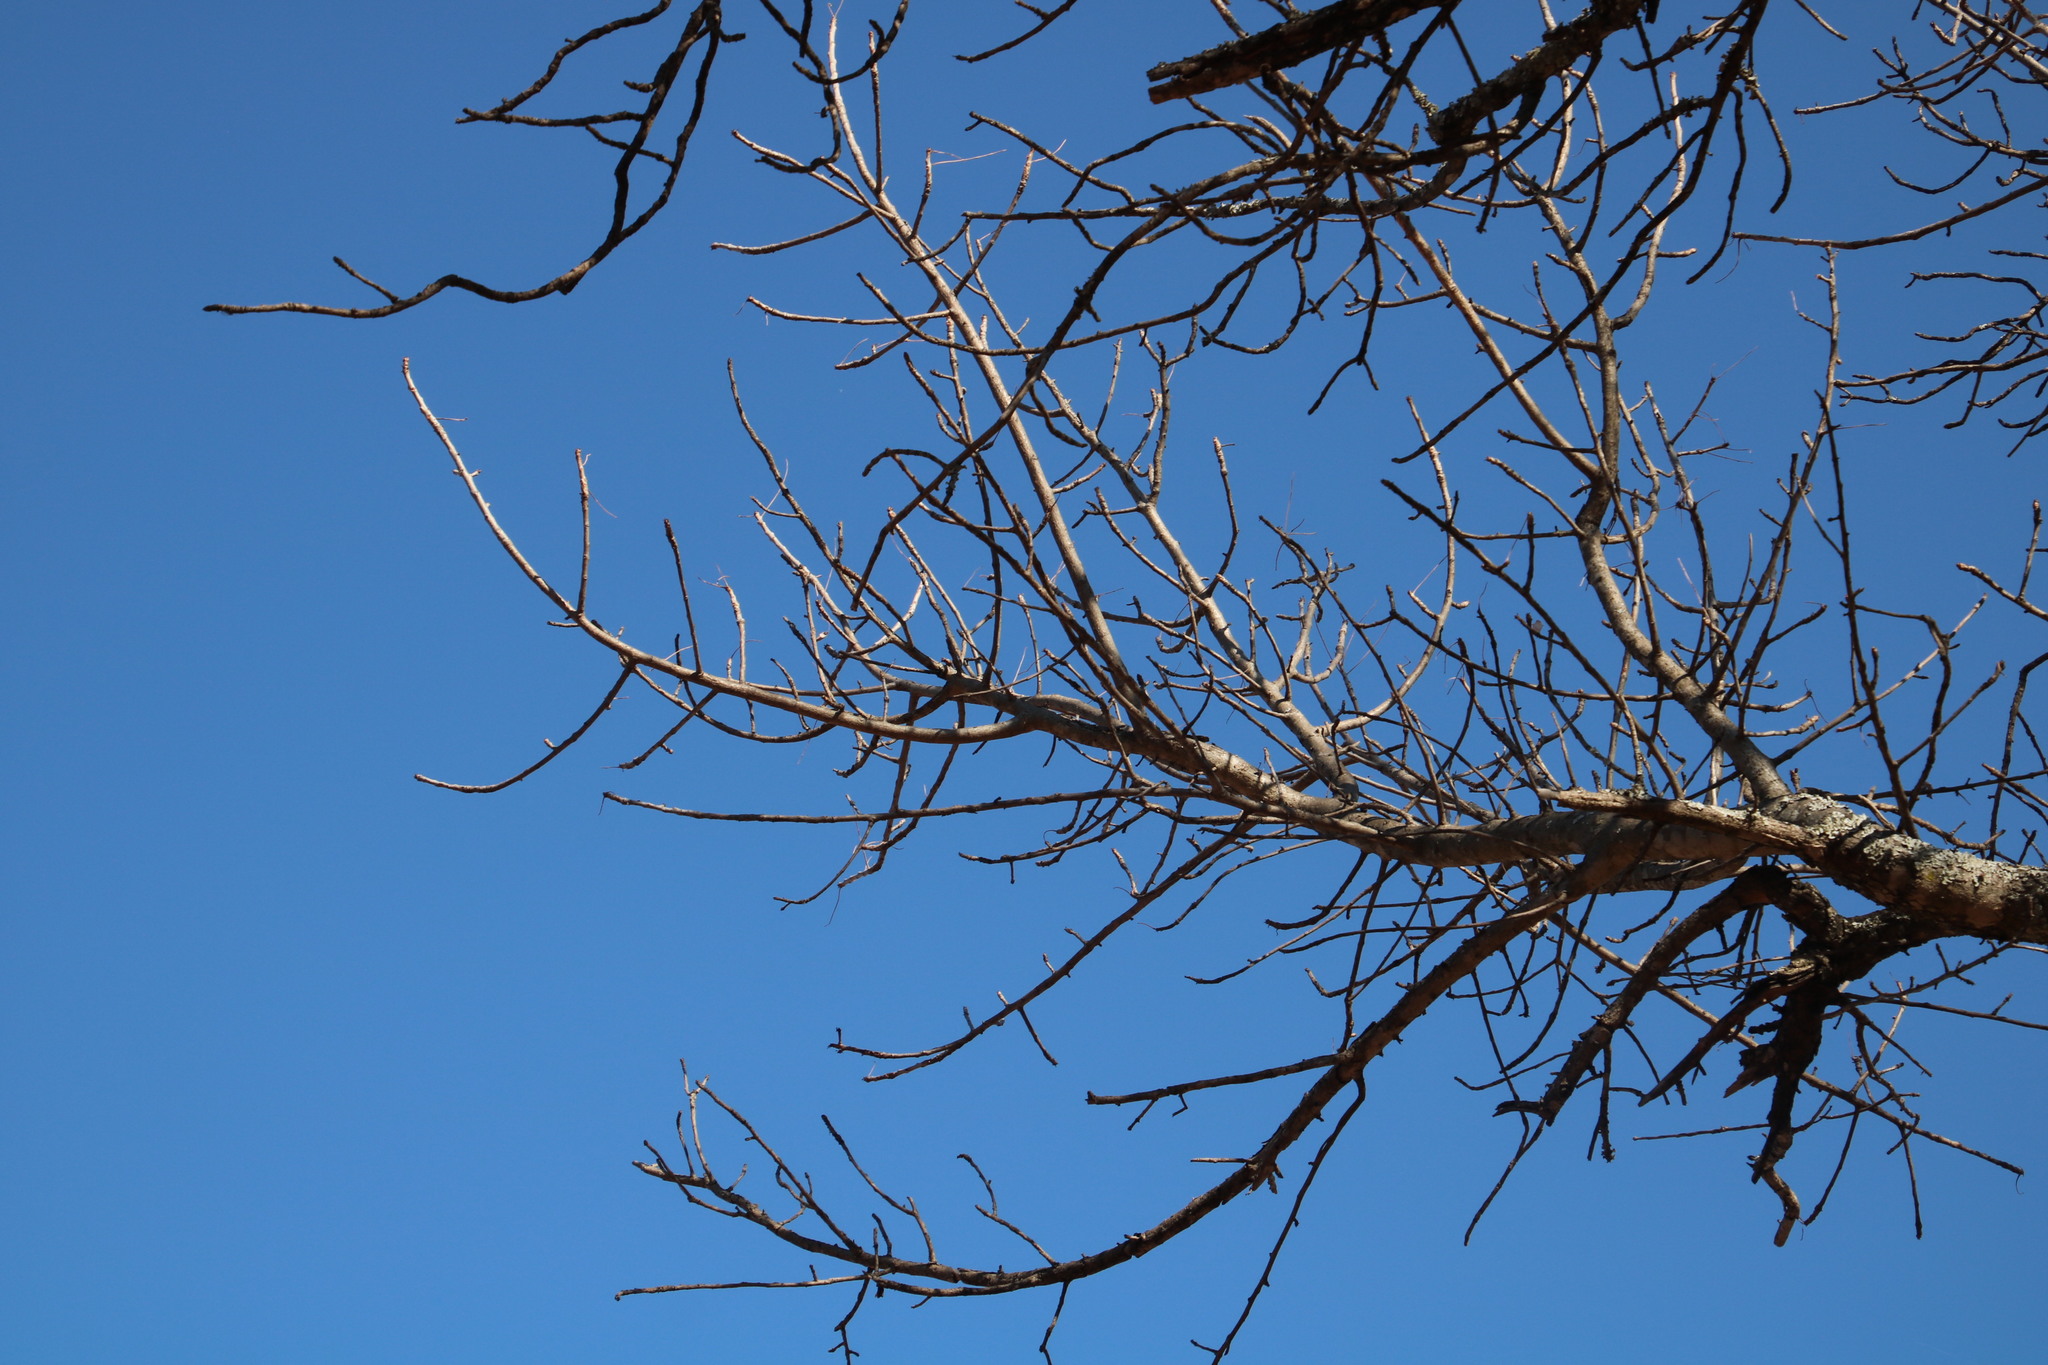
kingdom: Plantae
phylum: Tracheophyta
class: Magnoliopsida
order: Sapindales
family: Anacardiaceae
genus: Sclerocarya
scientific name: Sclerocarya birrea
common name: Marula
